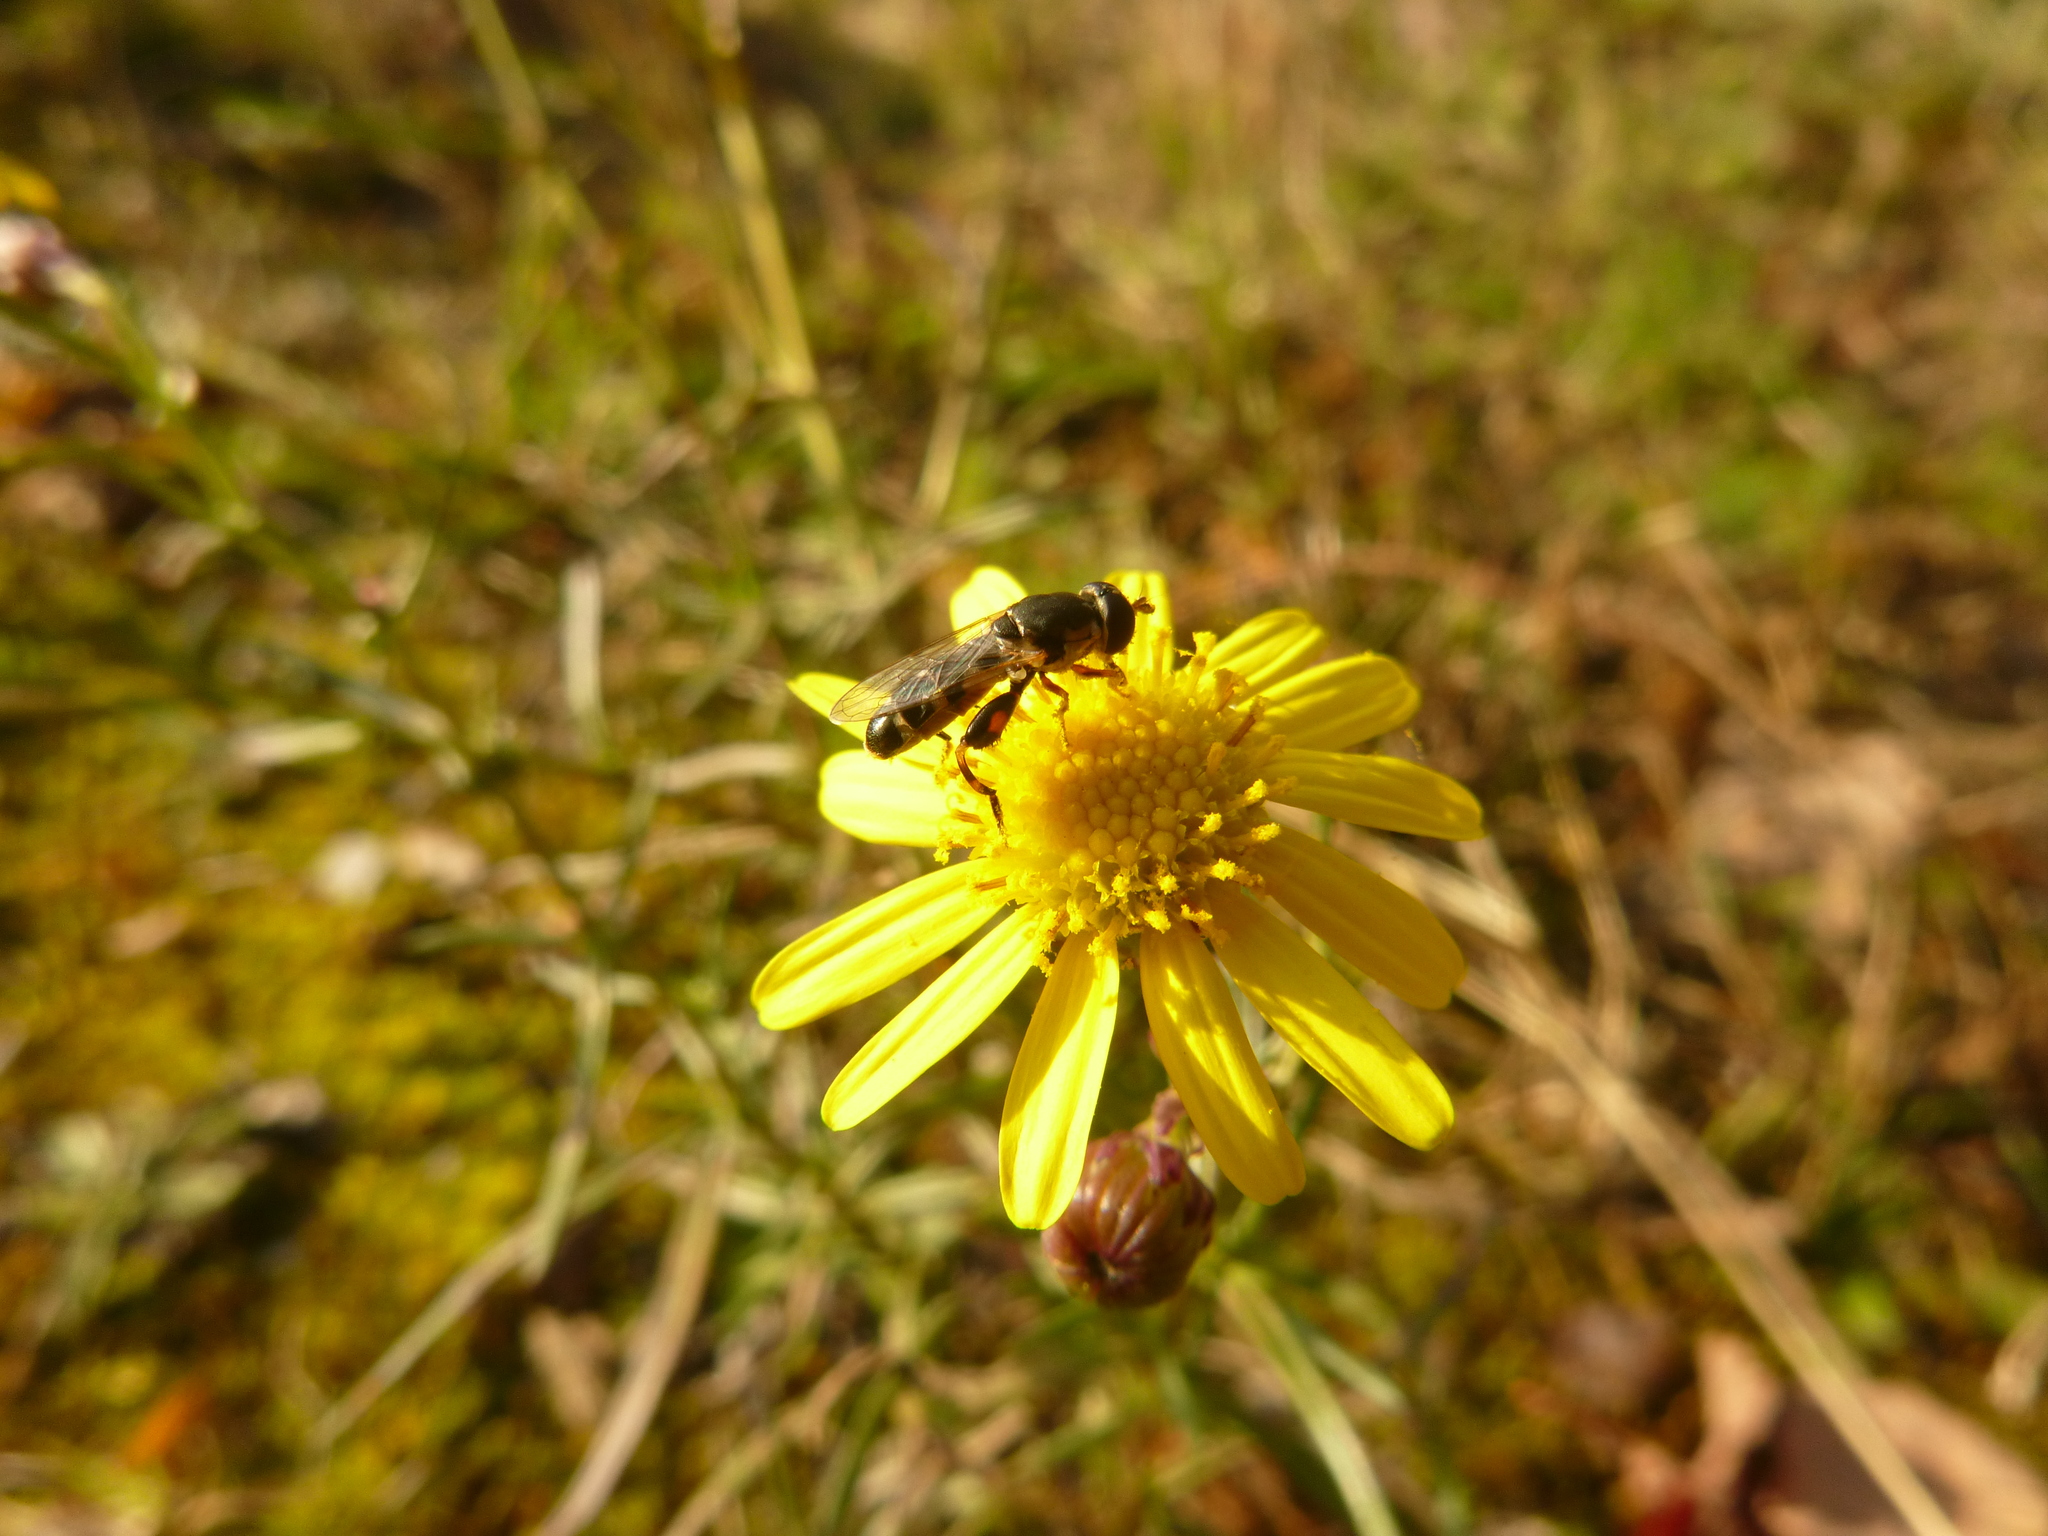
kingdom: Animalia
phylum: Arthropoda
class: Insecta
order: Diptera
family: Syrphidae
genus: Syritta
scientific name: Syritta pipiens
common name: Hover fly
